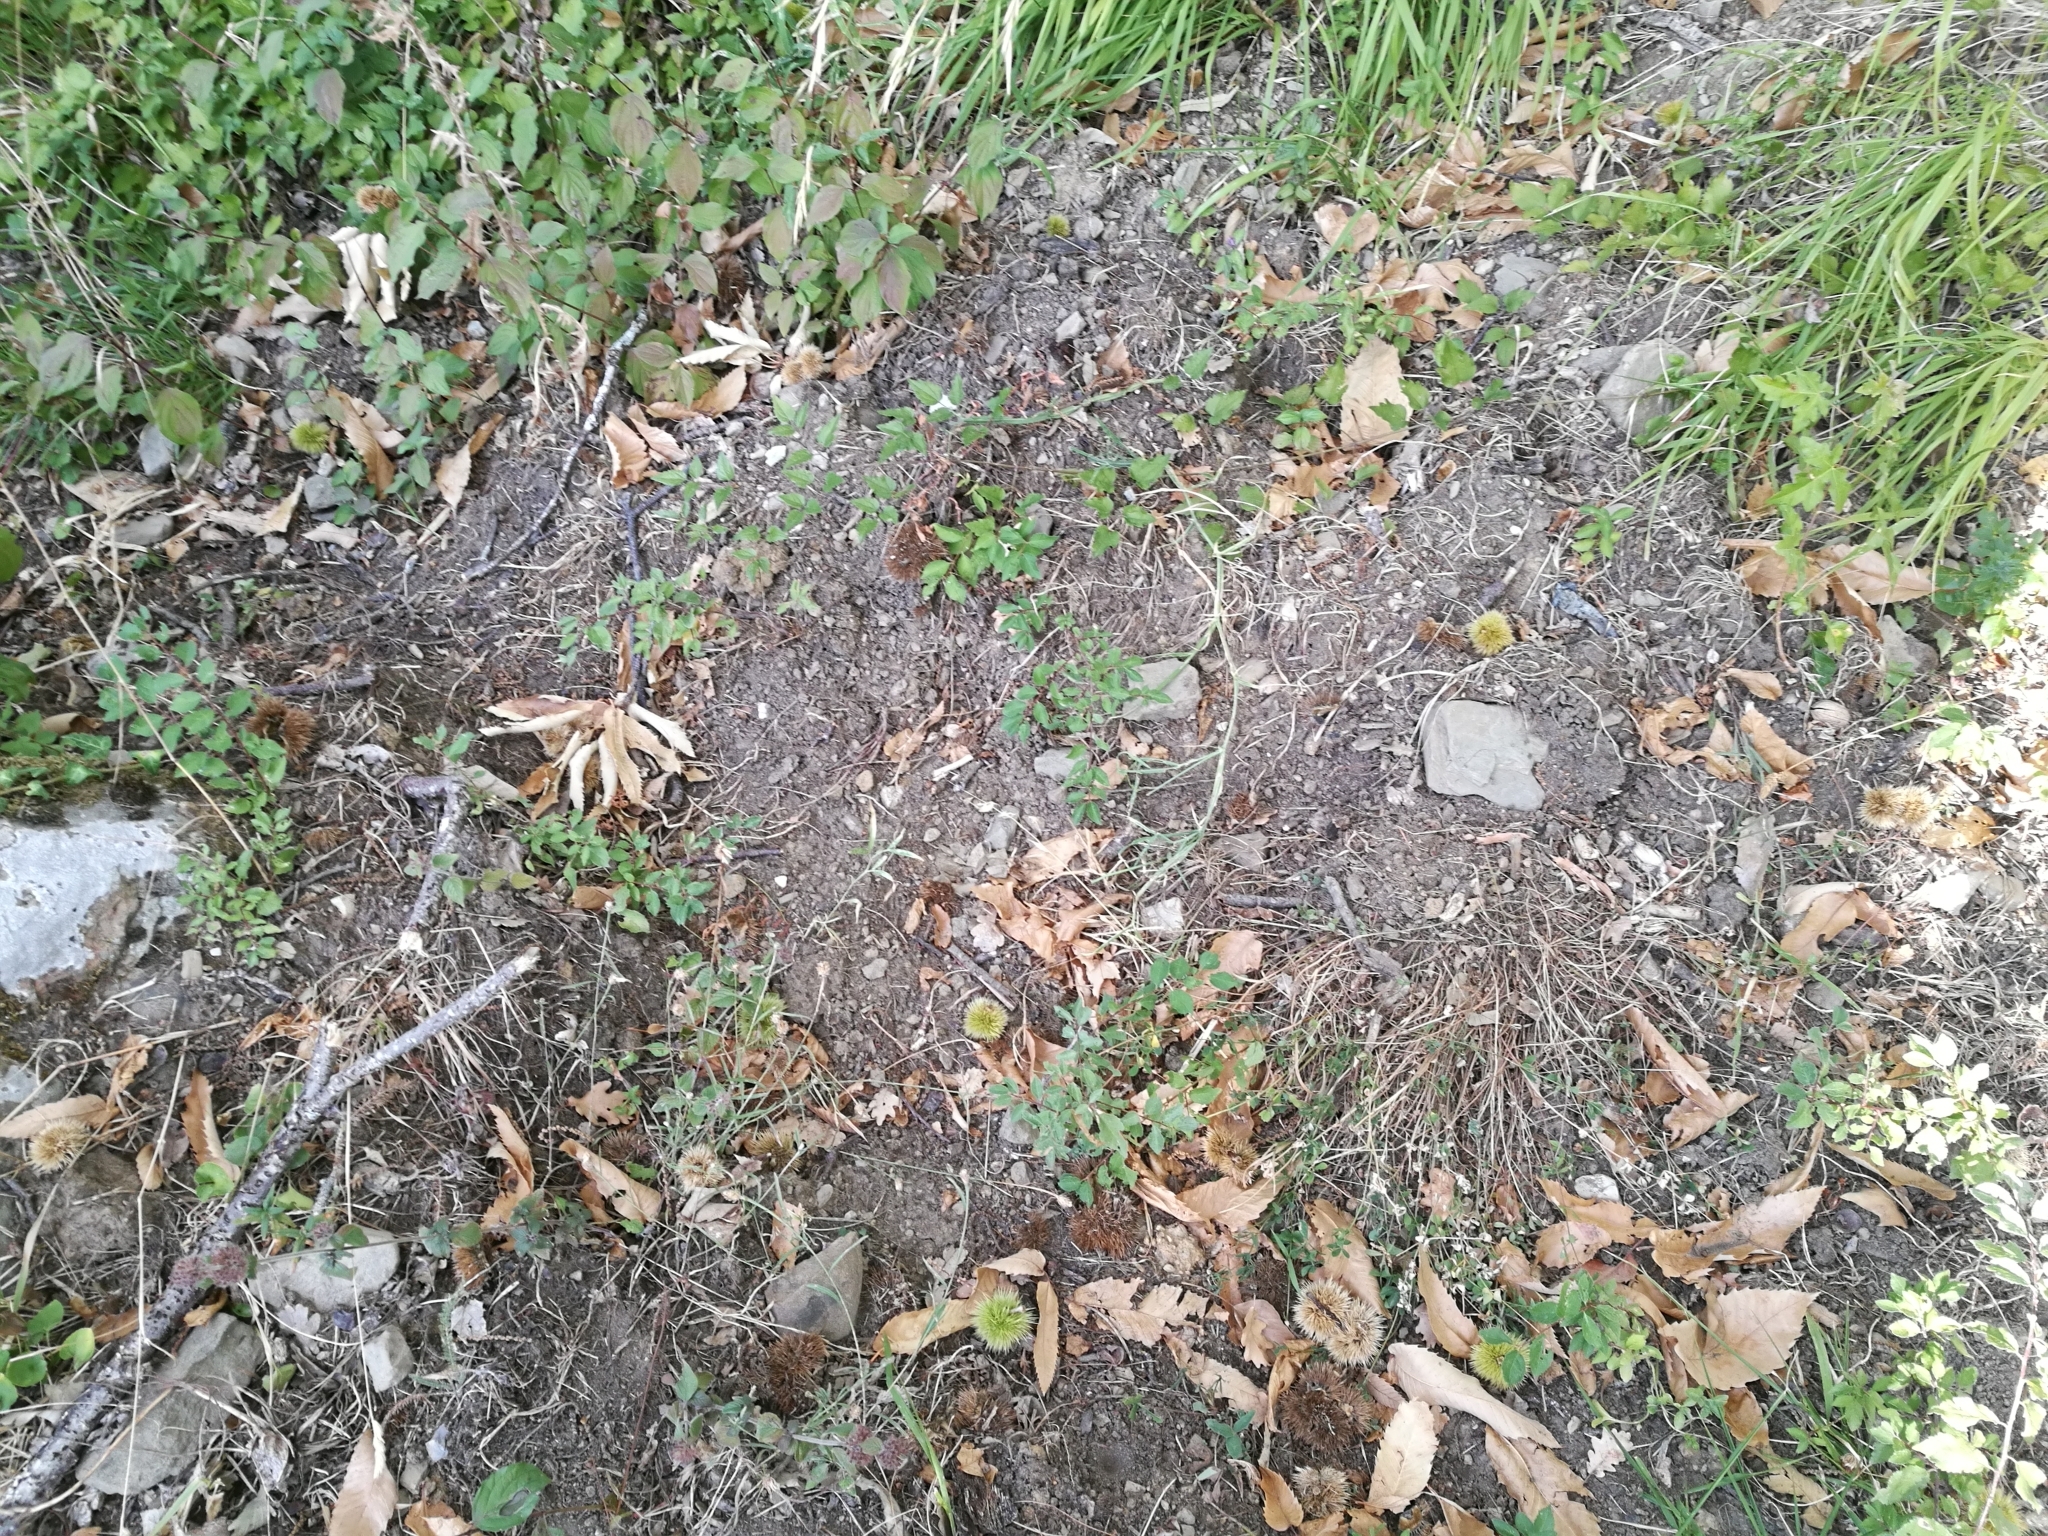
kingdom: Animalia
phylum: Chordata
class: Mammalia
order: Artiodactyla
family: Suidae
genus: Sus
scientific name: Sus scrofa
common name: Wild boar
